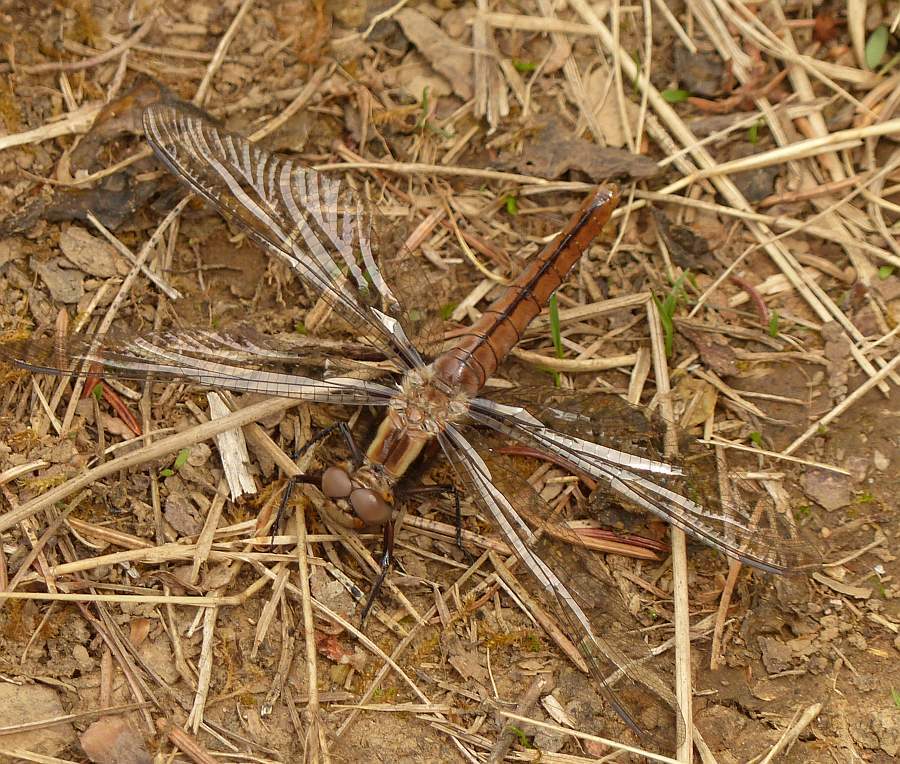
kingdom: Animalia
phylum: Arthropoda
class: Insecta
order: Odonata
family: Libellulidae
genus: Ladona
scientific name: Ladona julia
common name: Chalk-fronted corporal
